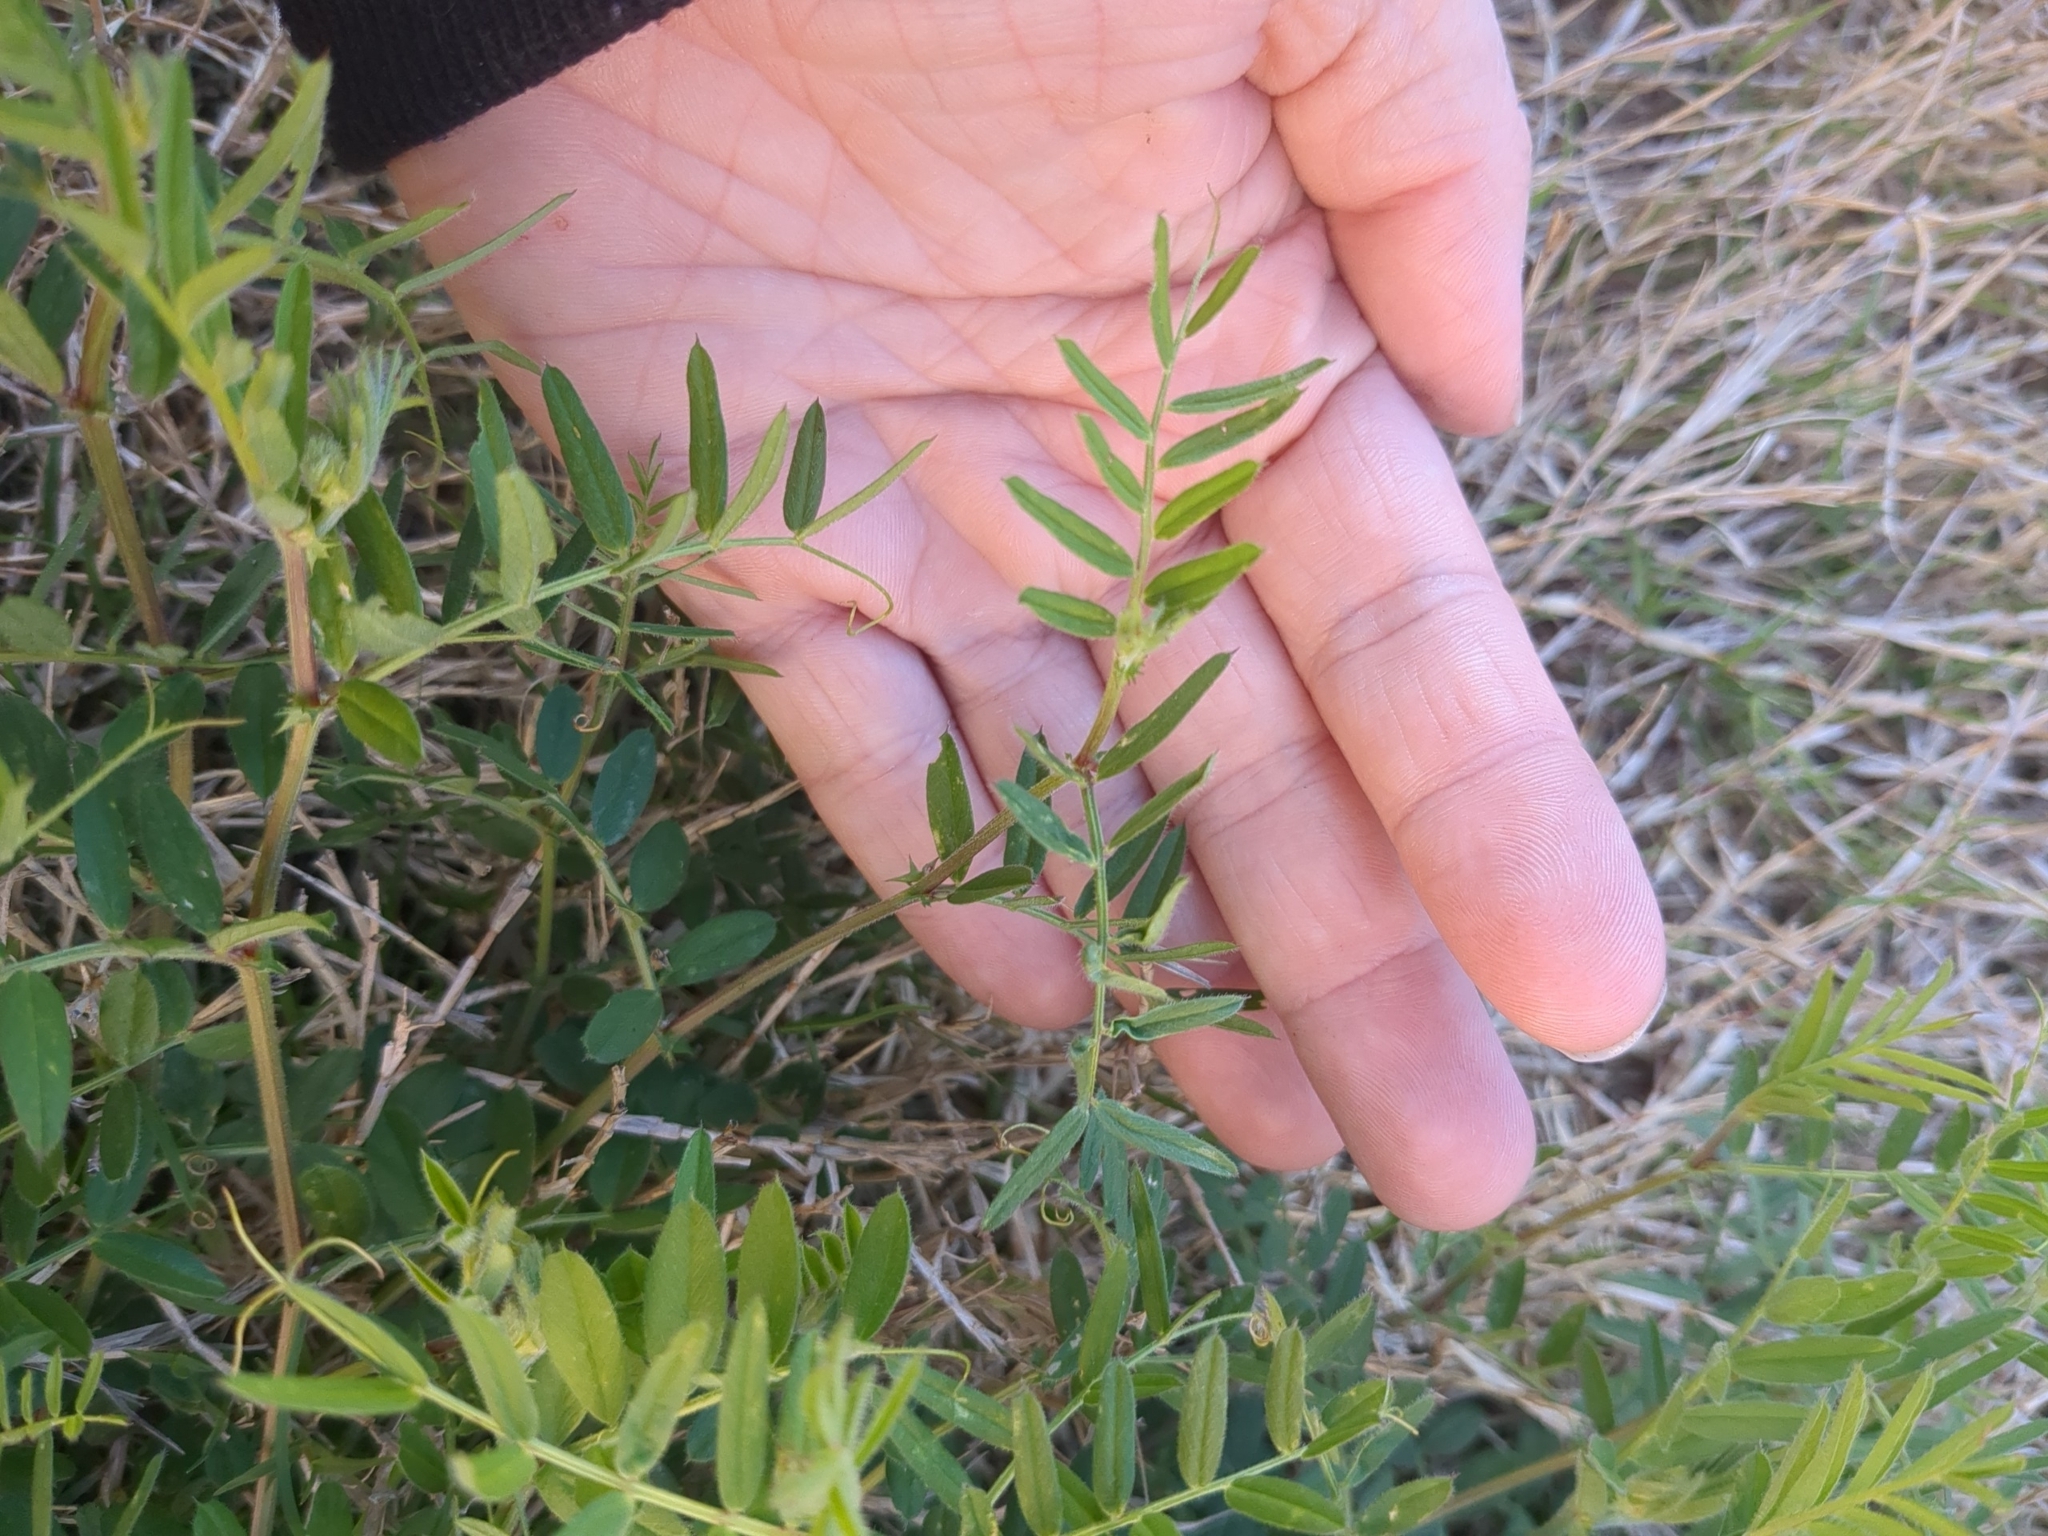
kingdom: Plantae
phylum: Tracheophyta
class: Magnoliopsida
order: Fabales
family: Fabaceae
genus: Vicia
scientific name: Vicia sativa
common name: Garden vetch
